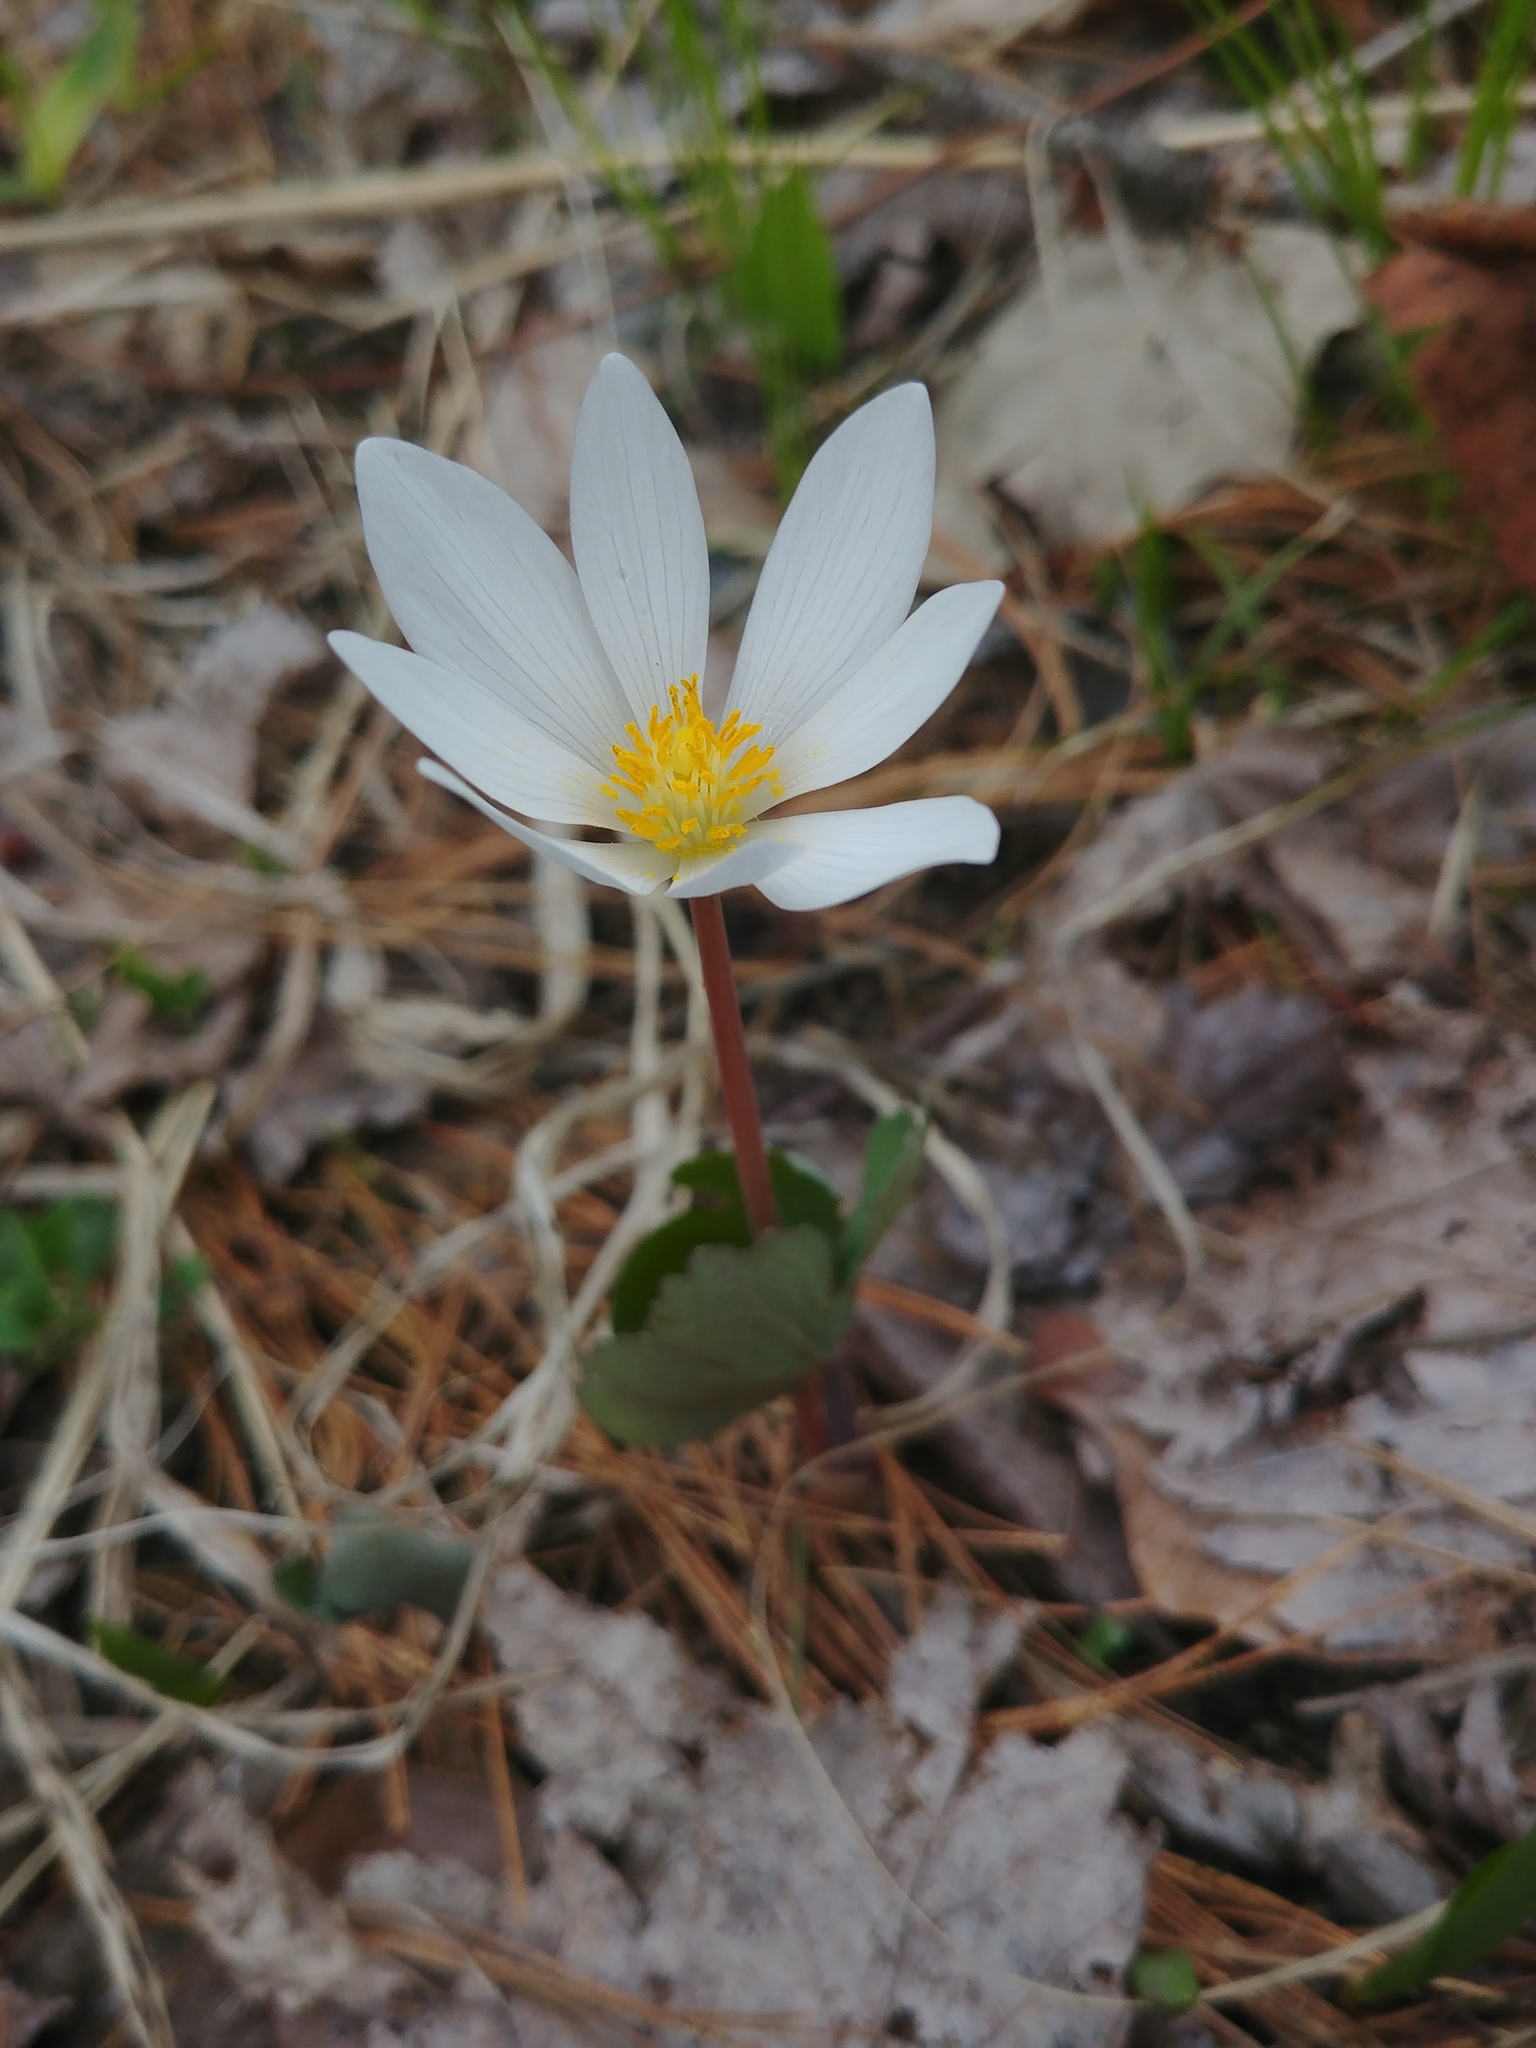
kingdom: Plantae
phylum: Tracheophyta
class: Magnoliopsida
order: Ranunculales
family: Papaveraceae
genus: Sanguinaria
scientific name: Sanguinaria canadensis
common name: Bloodroot
